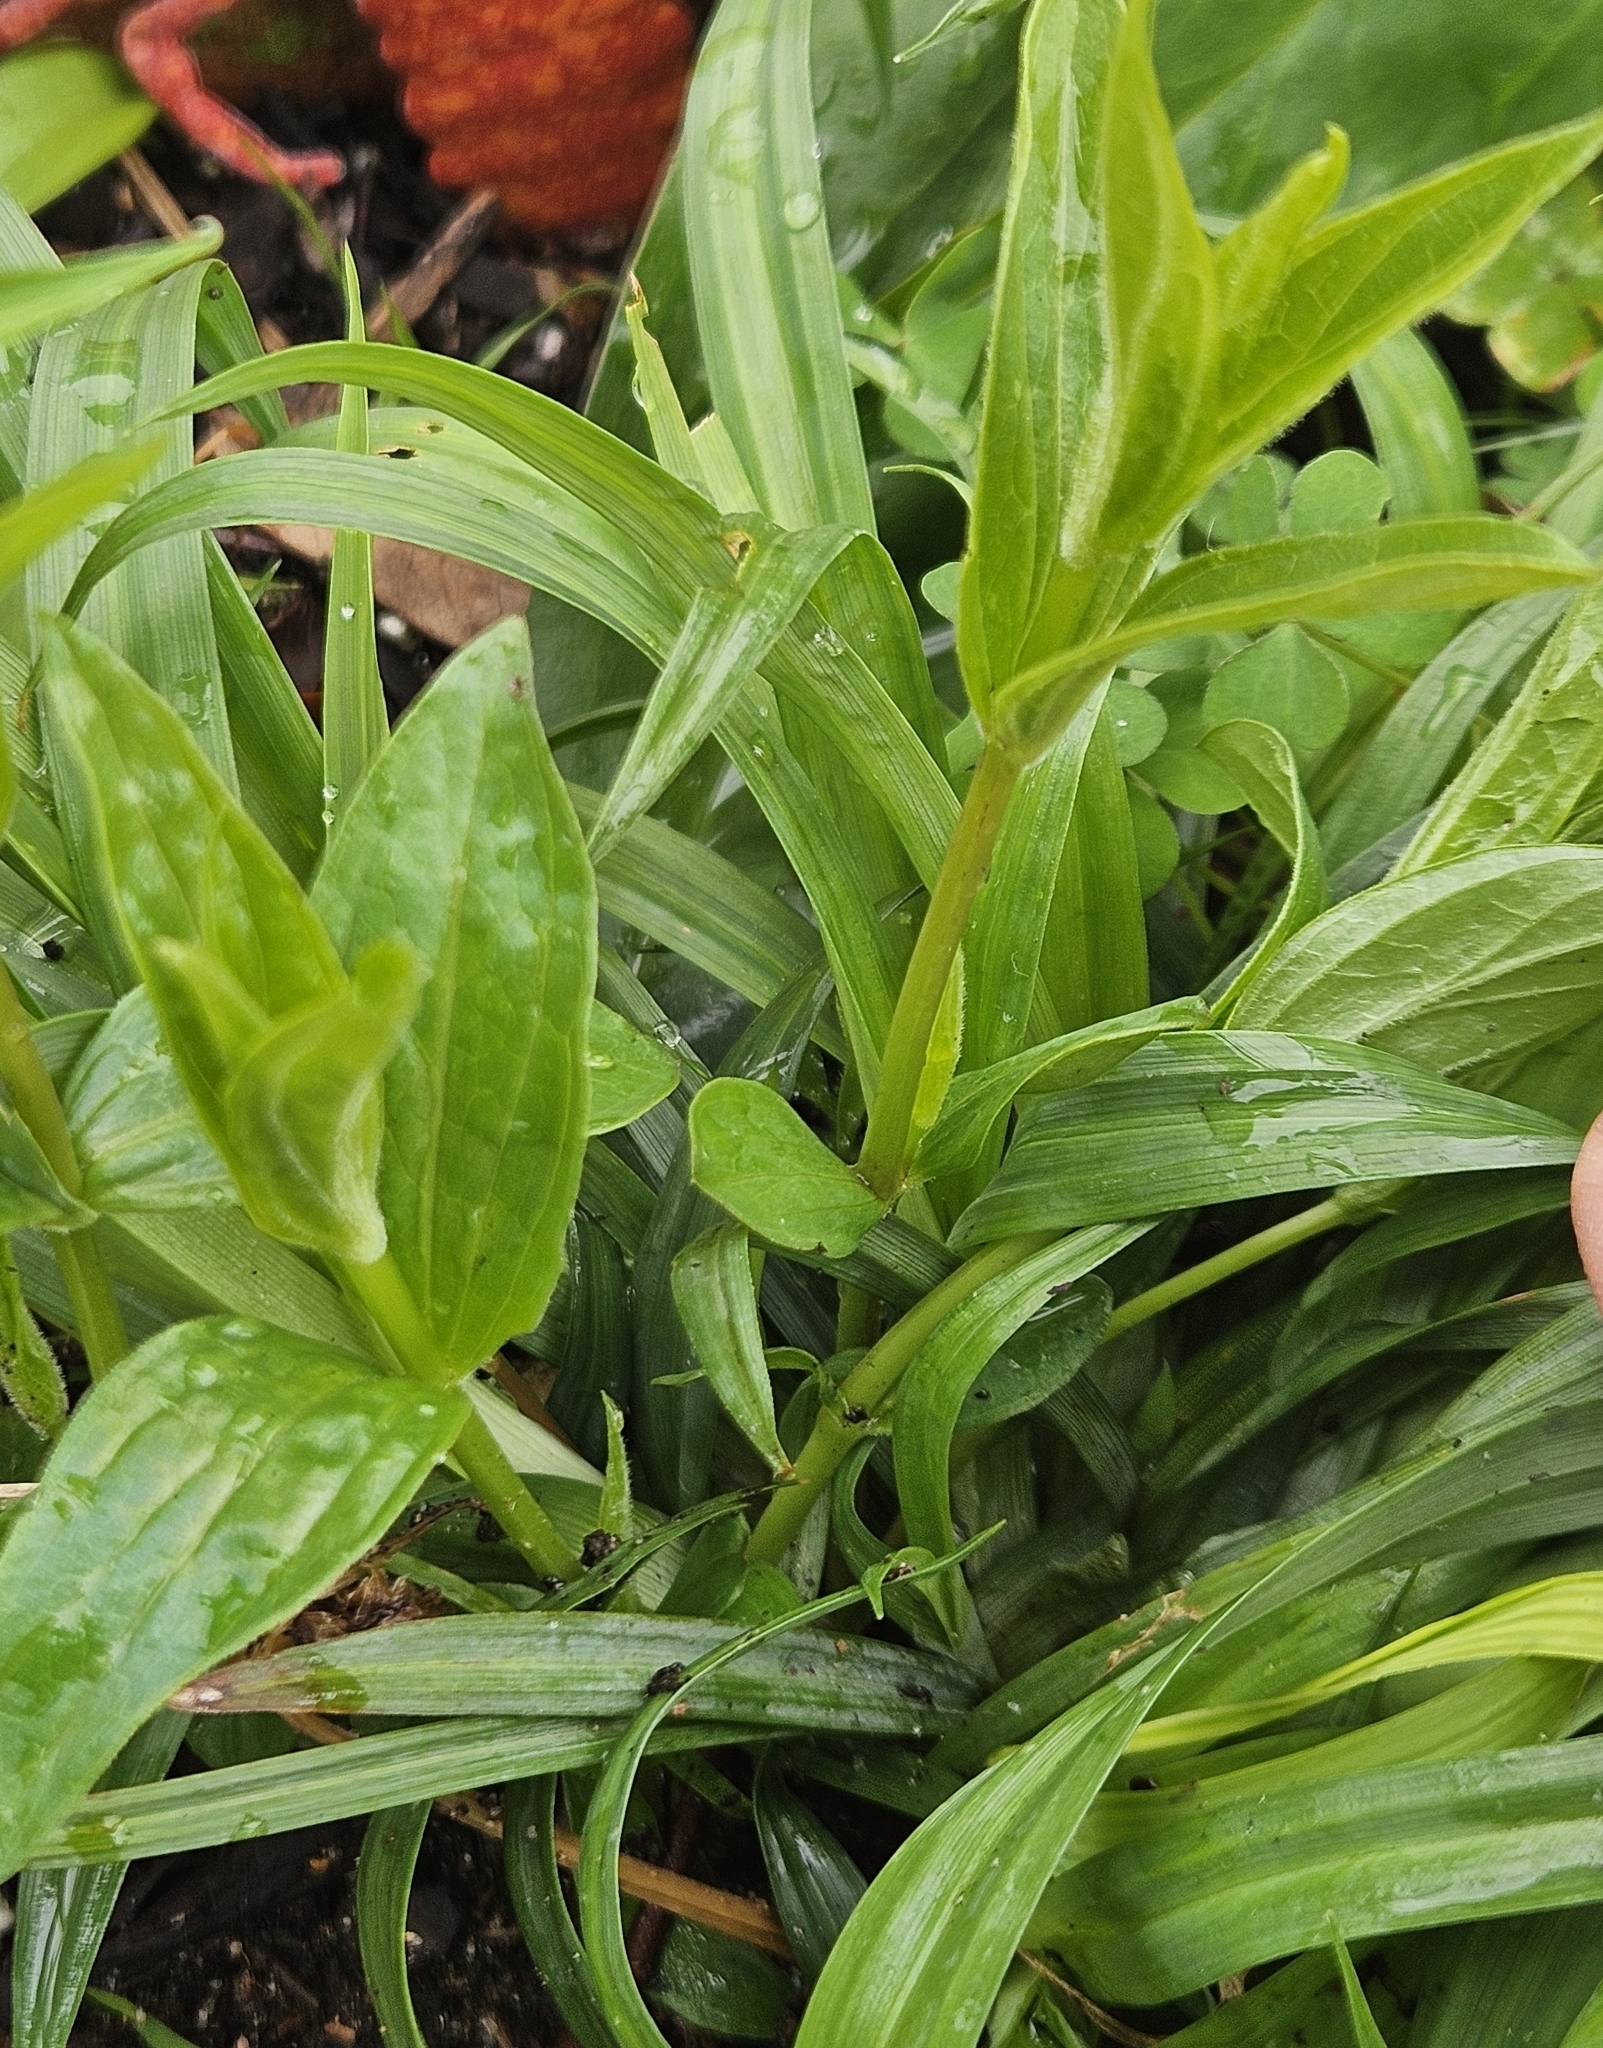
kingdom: Plantae
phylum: Tracheophyta
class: Magnoliopsida
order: Gentianales
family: Loganiaceae
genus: Spigelia
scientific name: Spigelia marilandica
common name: Indian-pink
